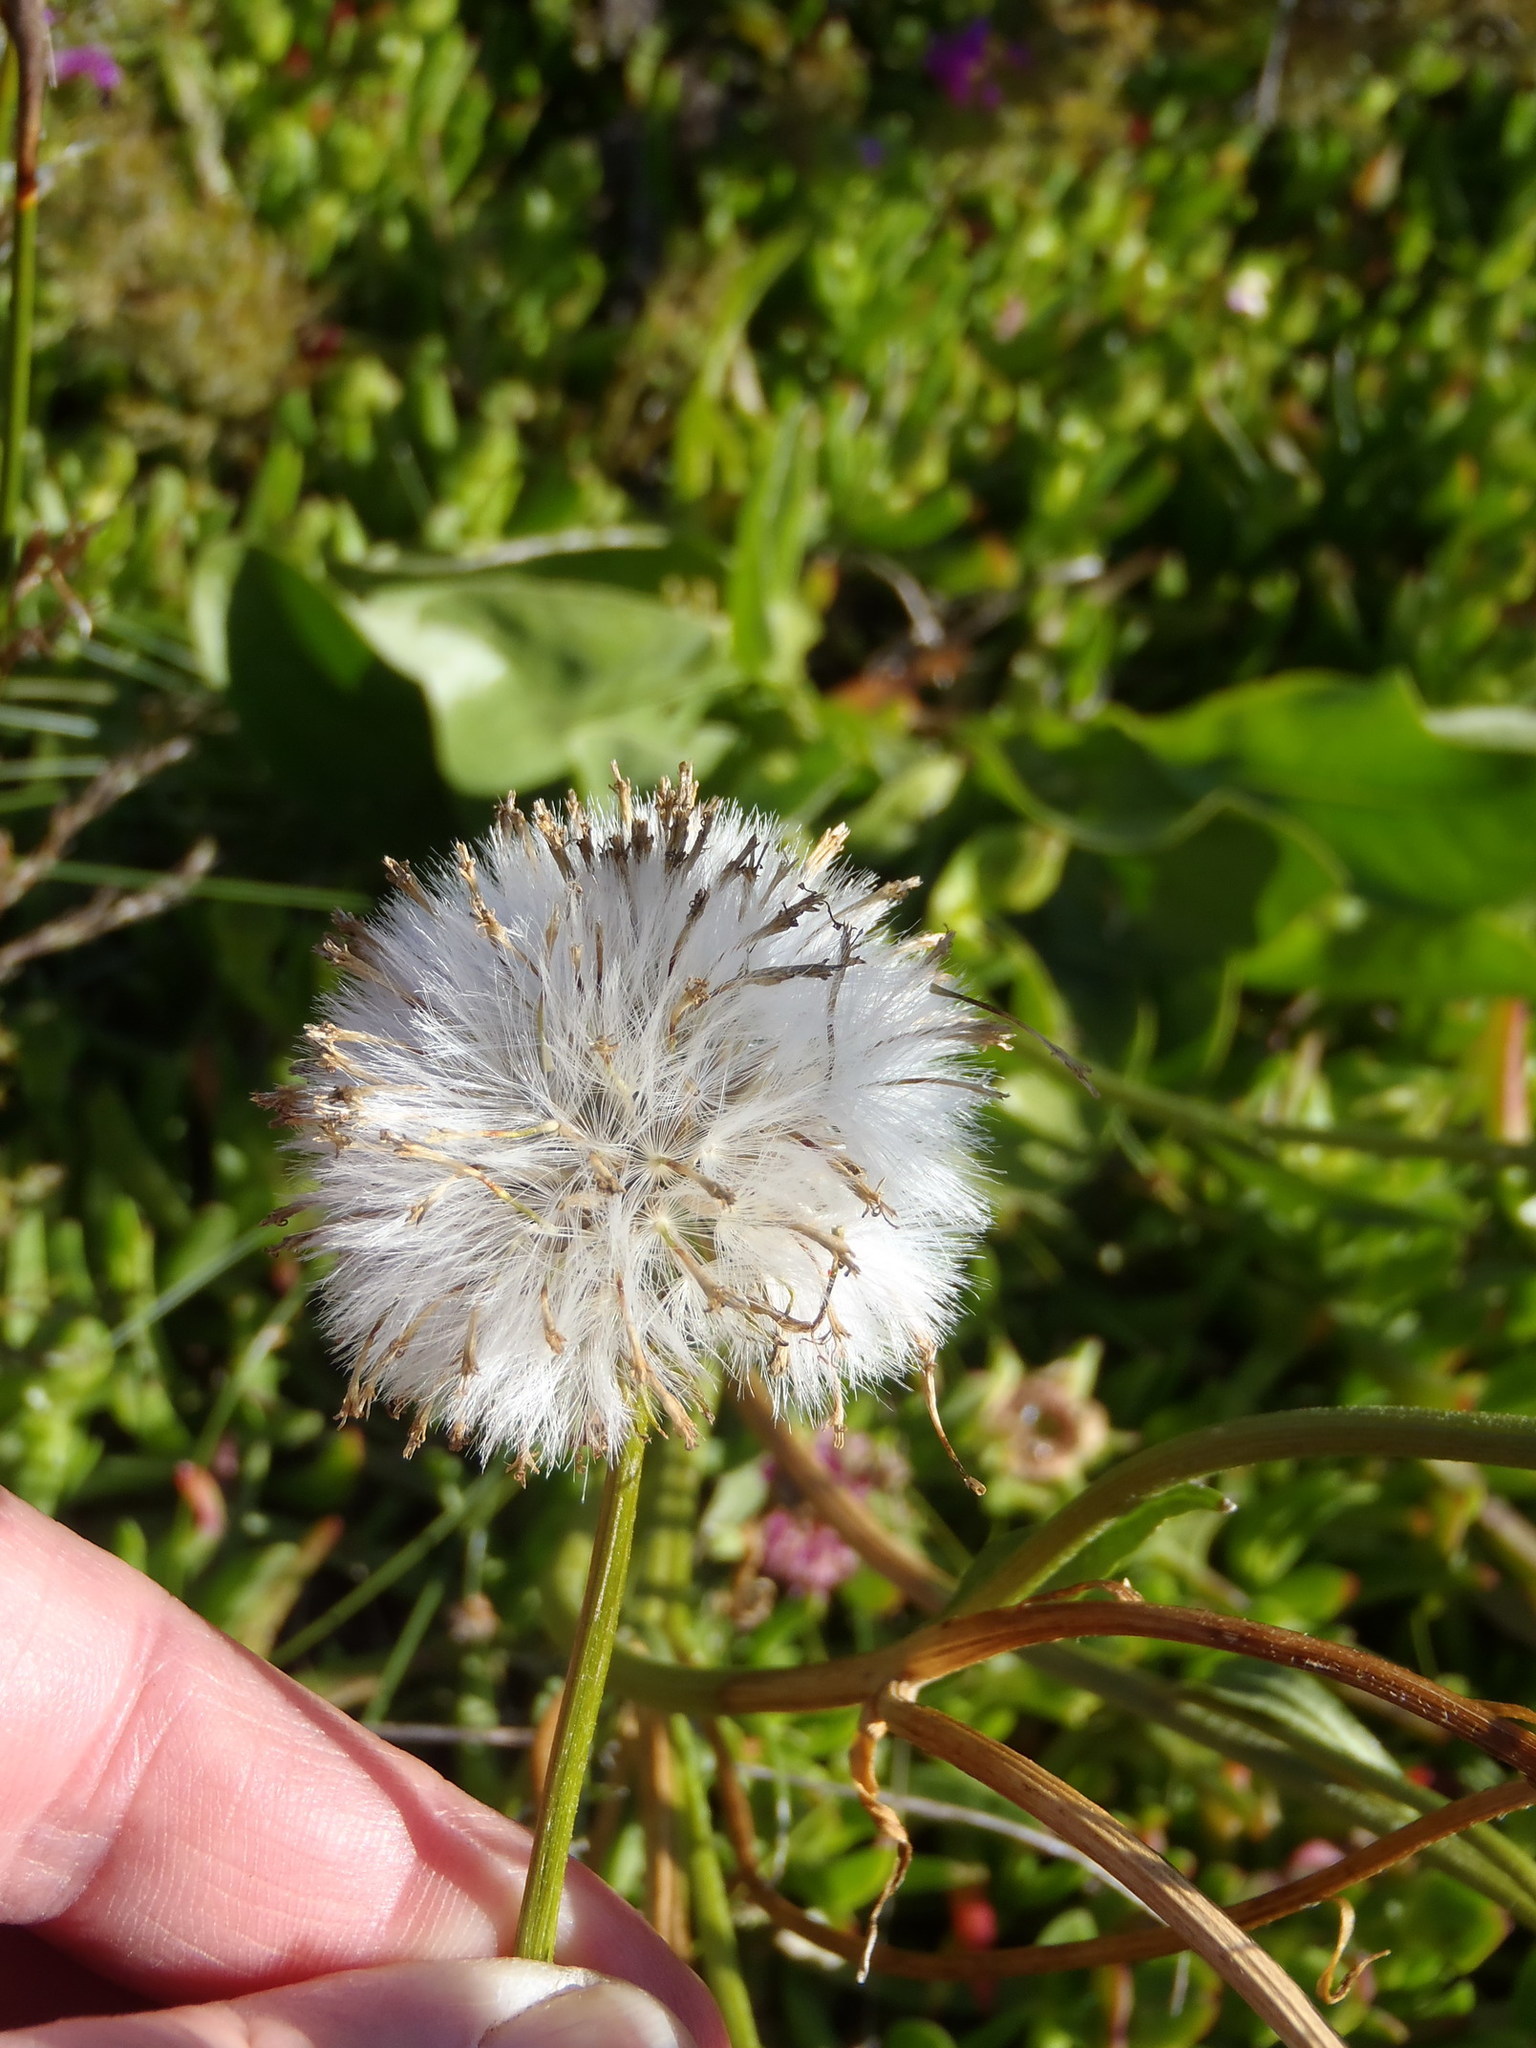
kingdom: Plantae
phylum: Tracheophyta
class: Magnoliopsida
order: Asterales
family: Asteraceae
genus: Senecio
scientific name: Senecio coronatus
